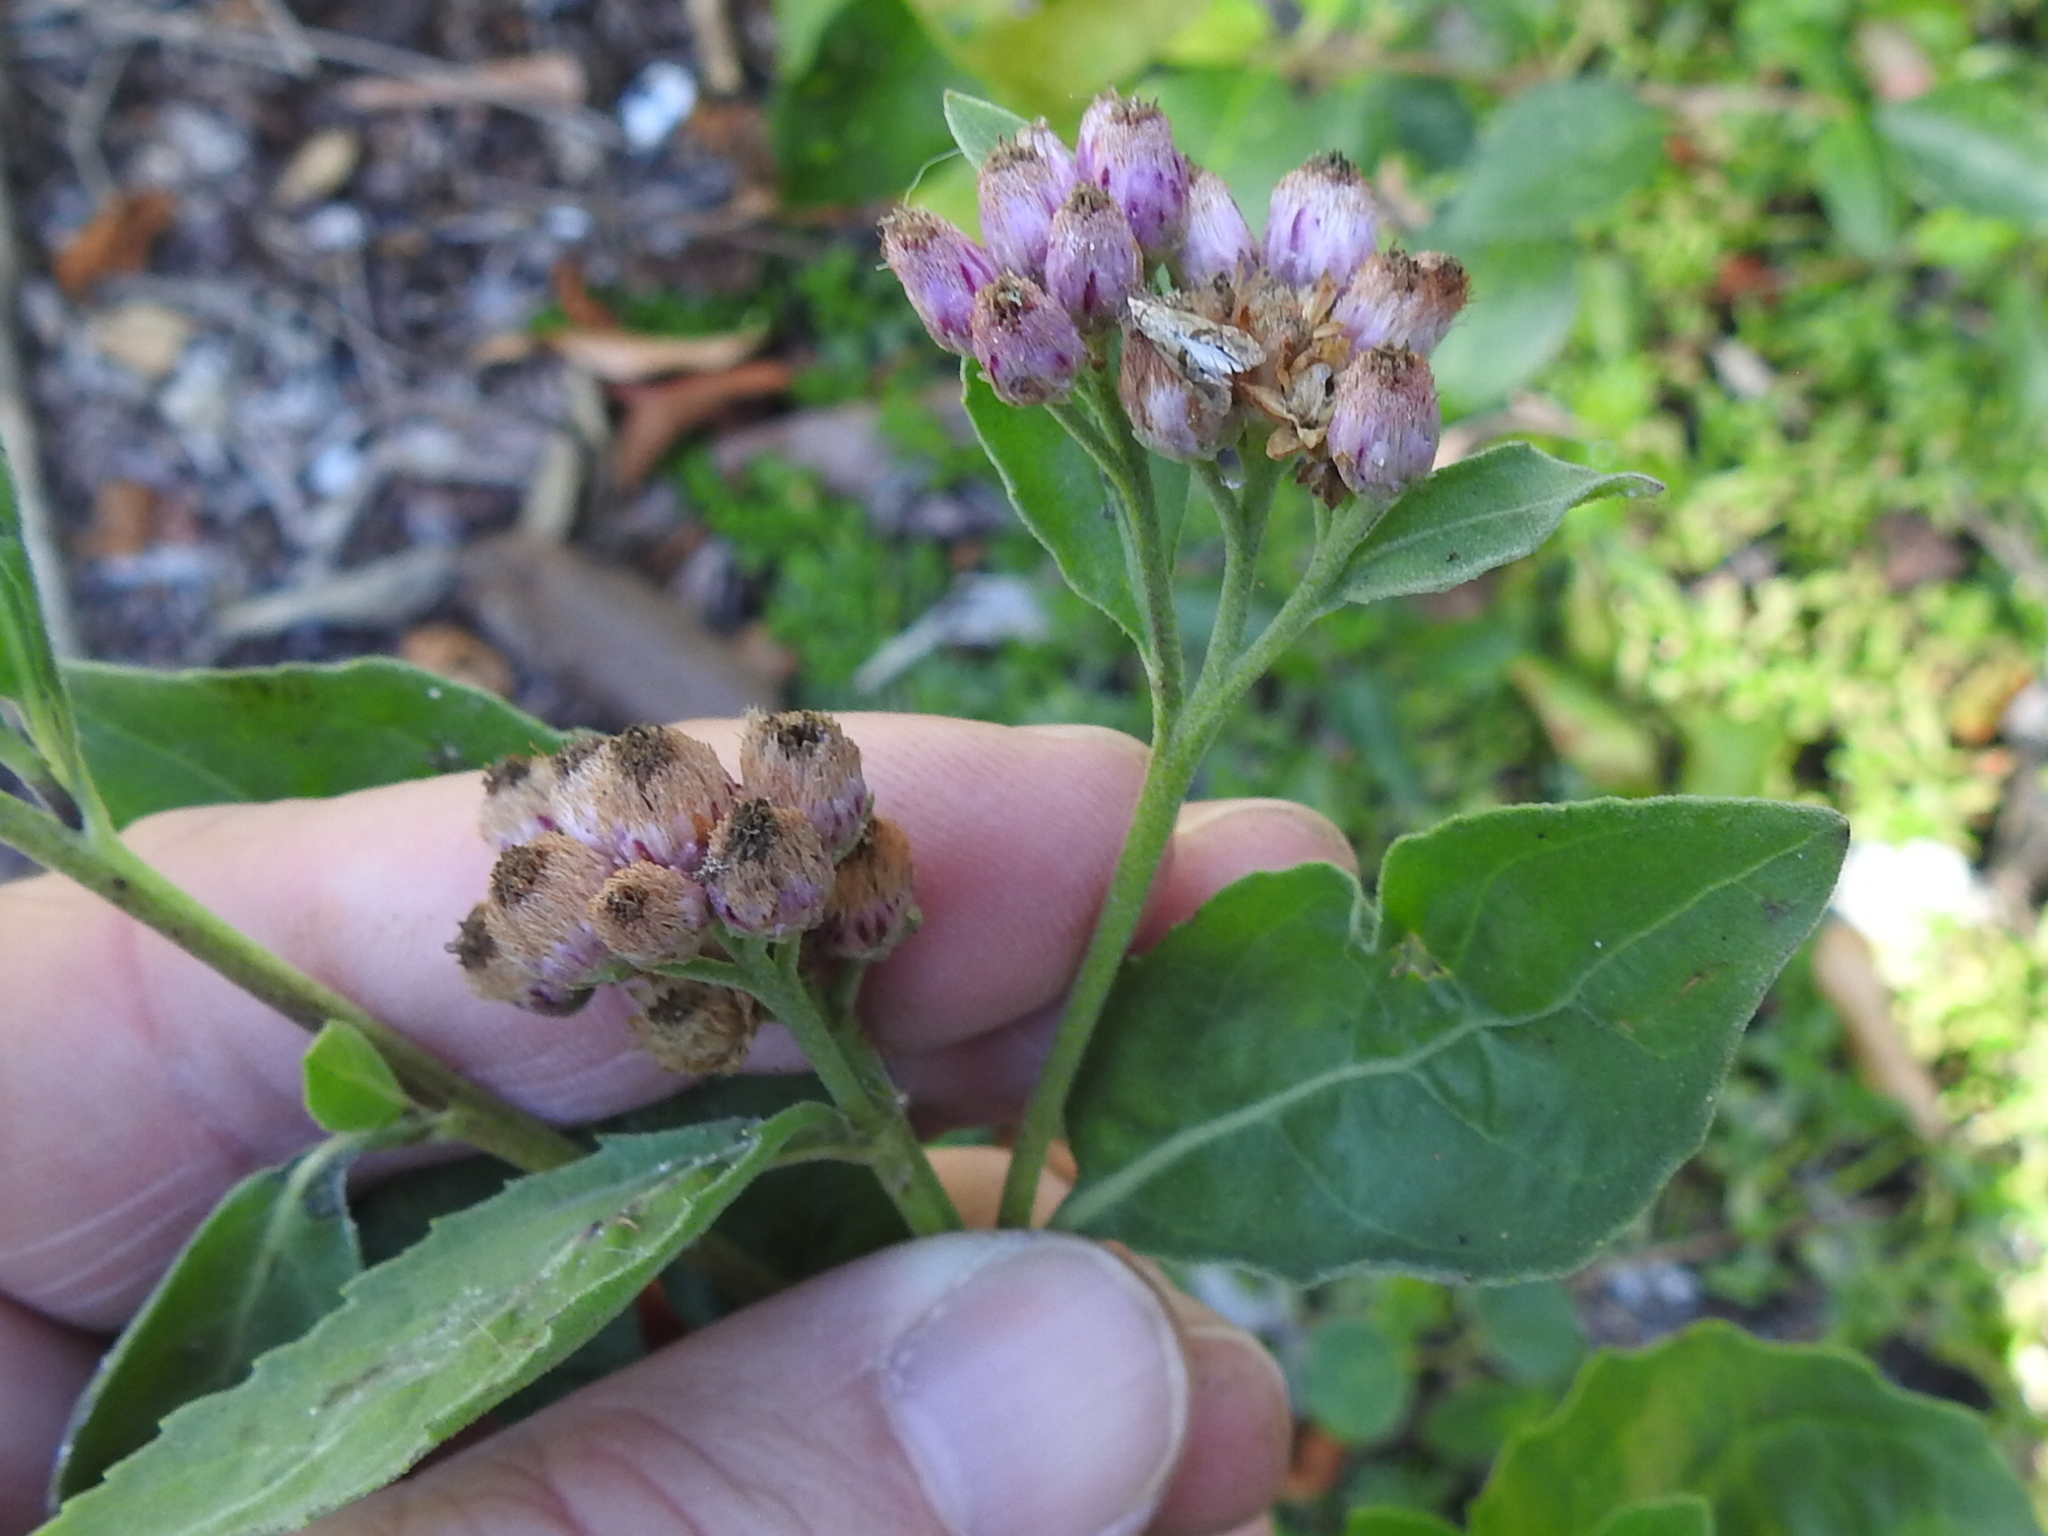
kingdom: Plantae
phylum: Tracheophyta
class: Magnoliopsida
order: Asterales
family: Asteraceae
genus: Pluchea
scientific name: Pluchea carolinensis
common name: Marsh fleabane
